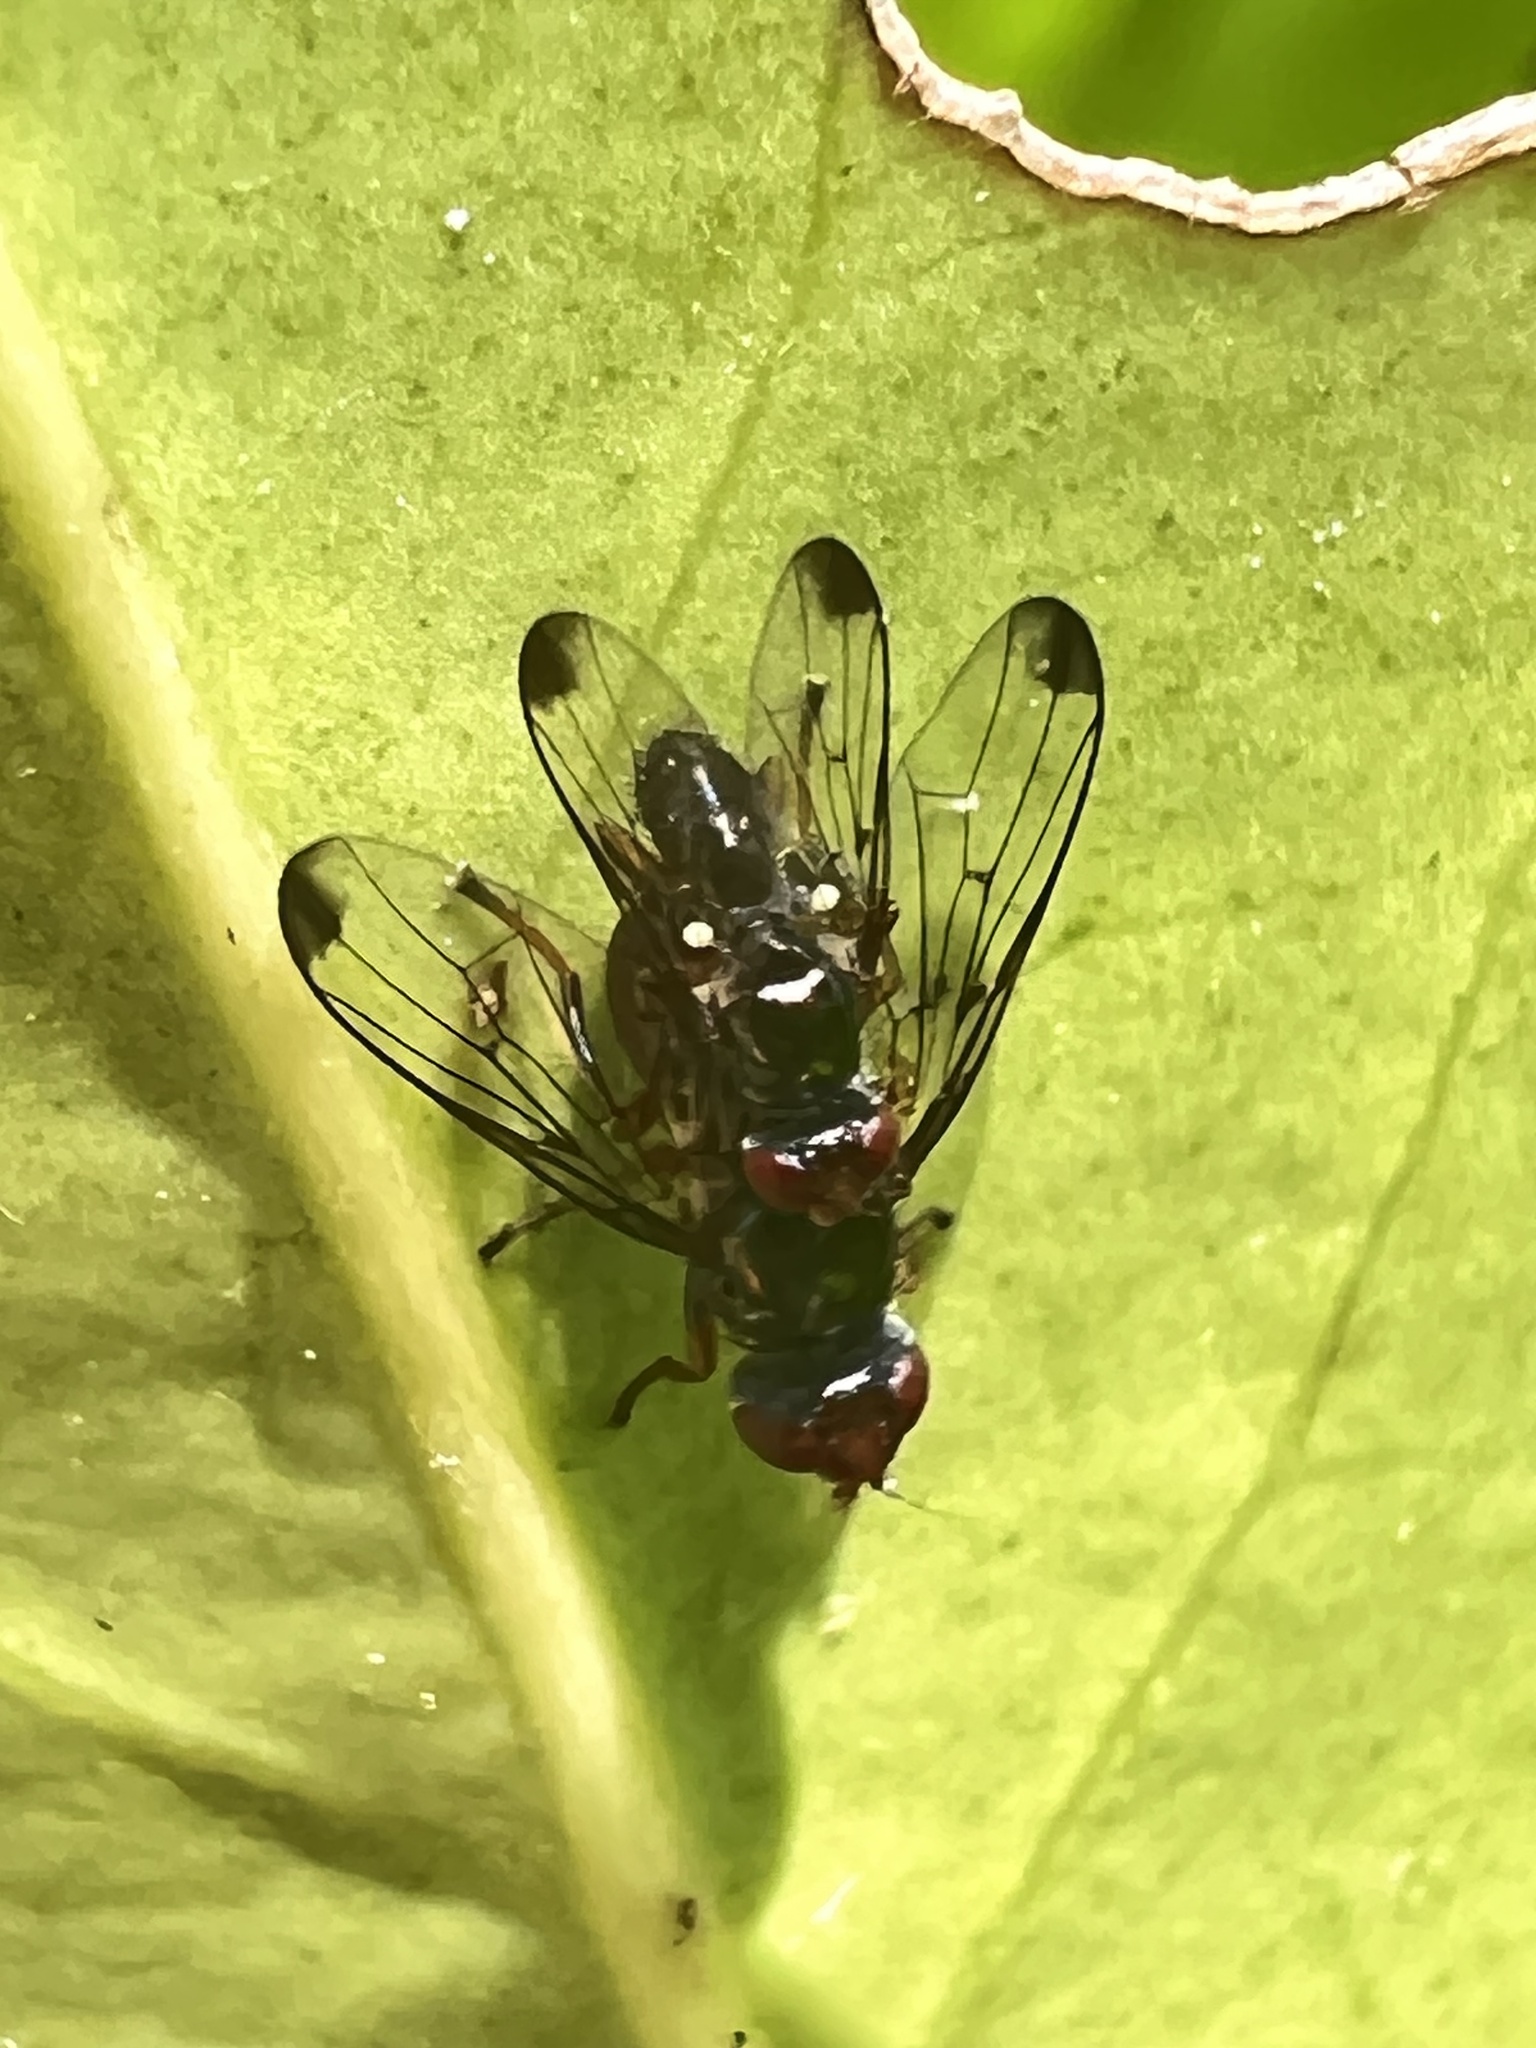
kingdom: Animalia
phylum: Arthropoda
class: Insecta
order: Diptera
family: Platystomatidae
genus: Zealandortalis
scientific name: Zealandortalis gregi
